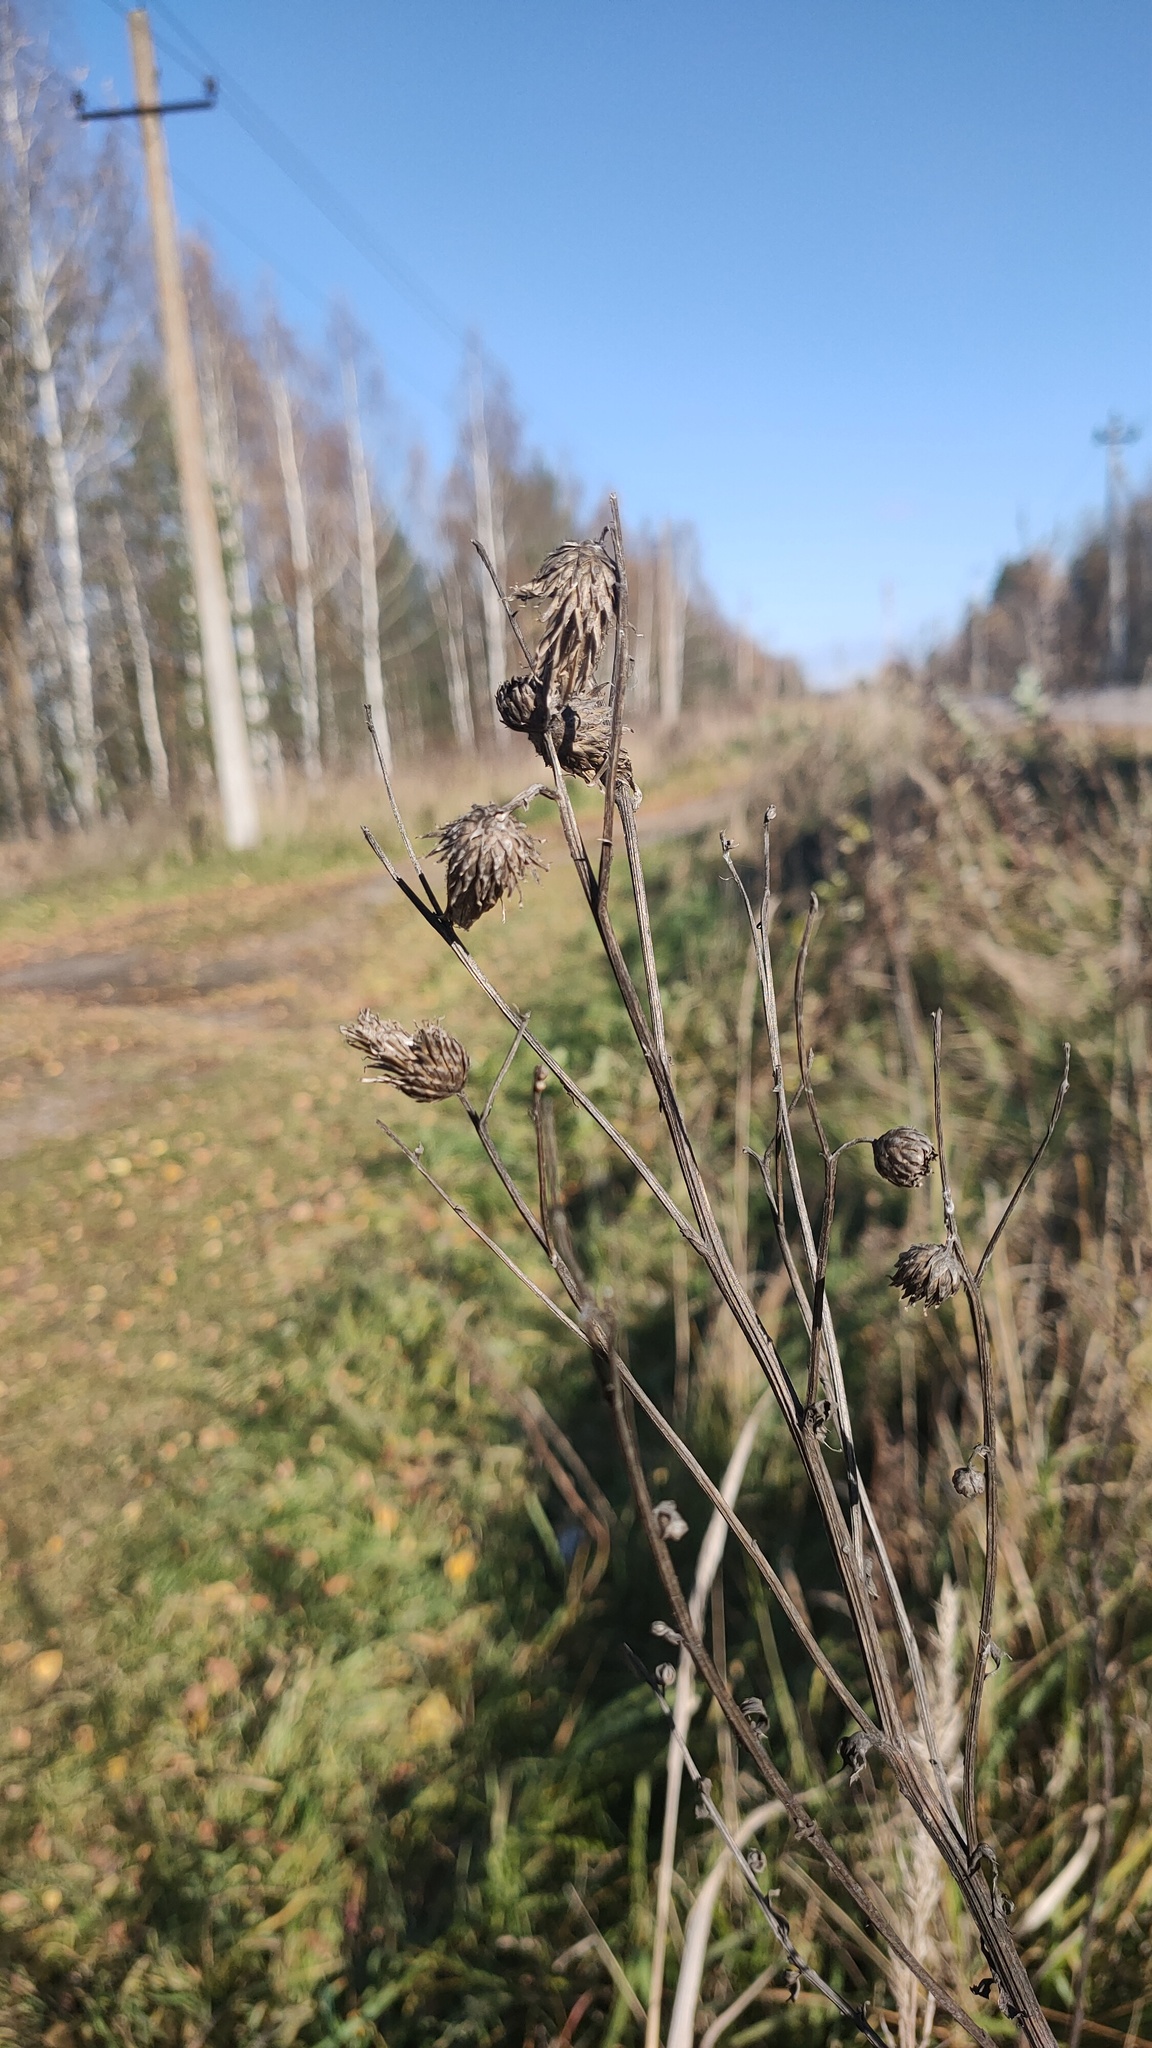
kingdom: Plantae
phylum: Tracheophyta
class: Magnoliopsida
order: Asterales
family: Asteraceae
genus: Cirsium
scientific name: Cirsium arvense
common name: Creeping thistle
